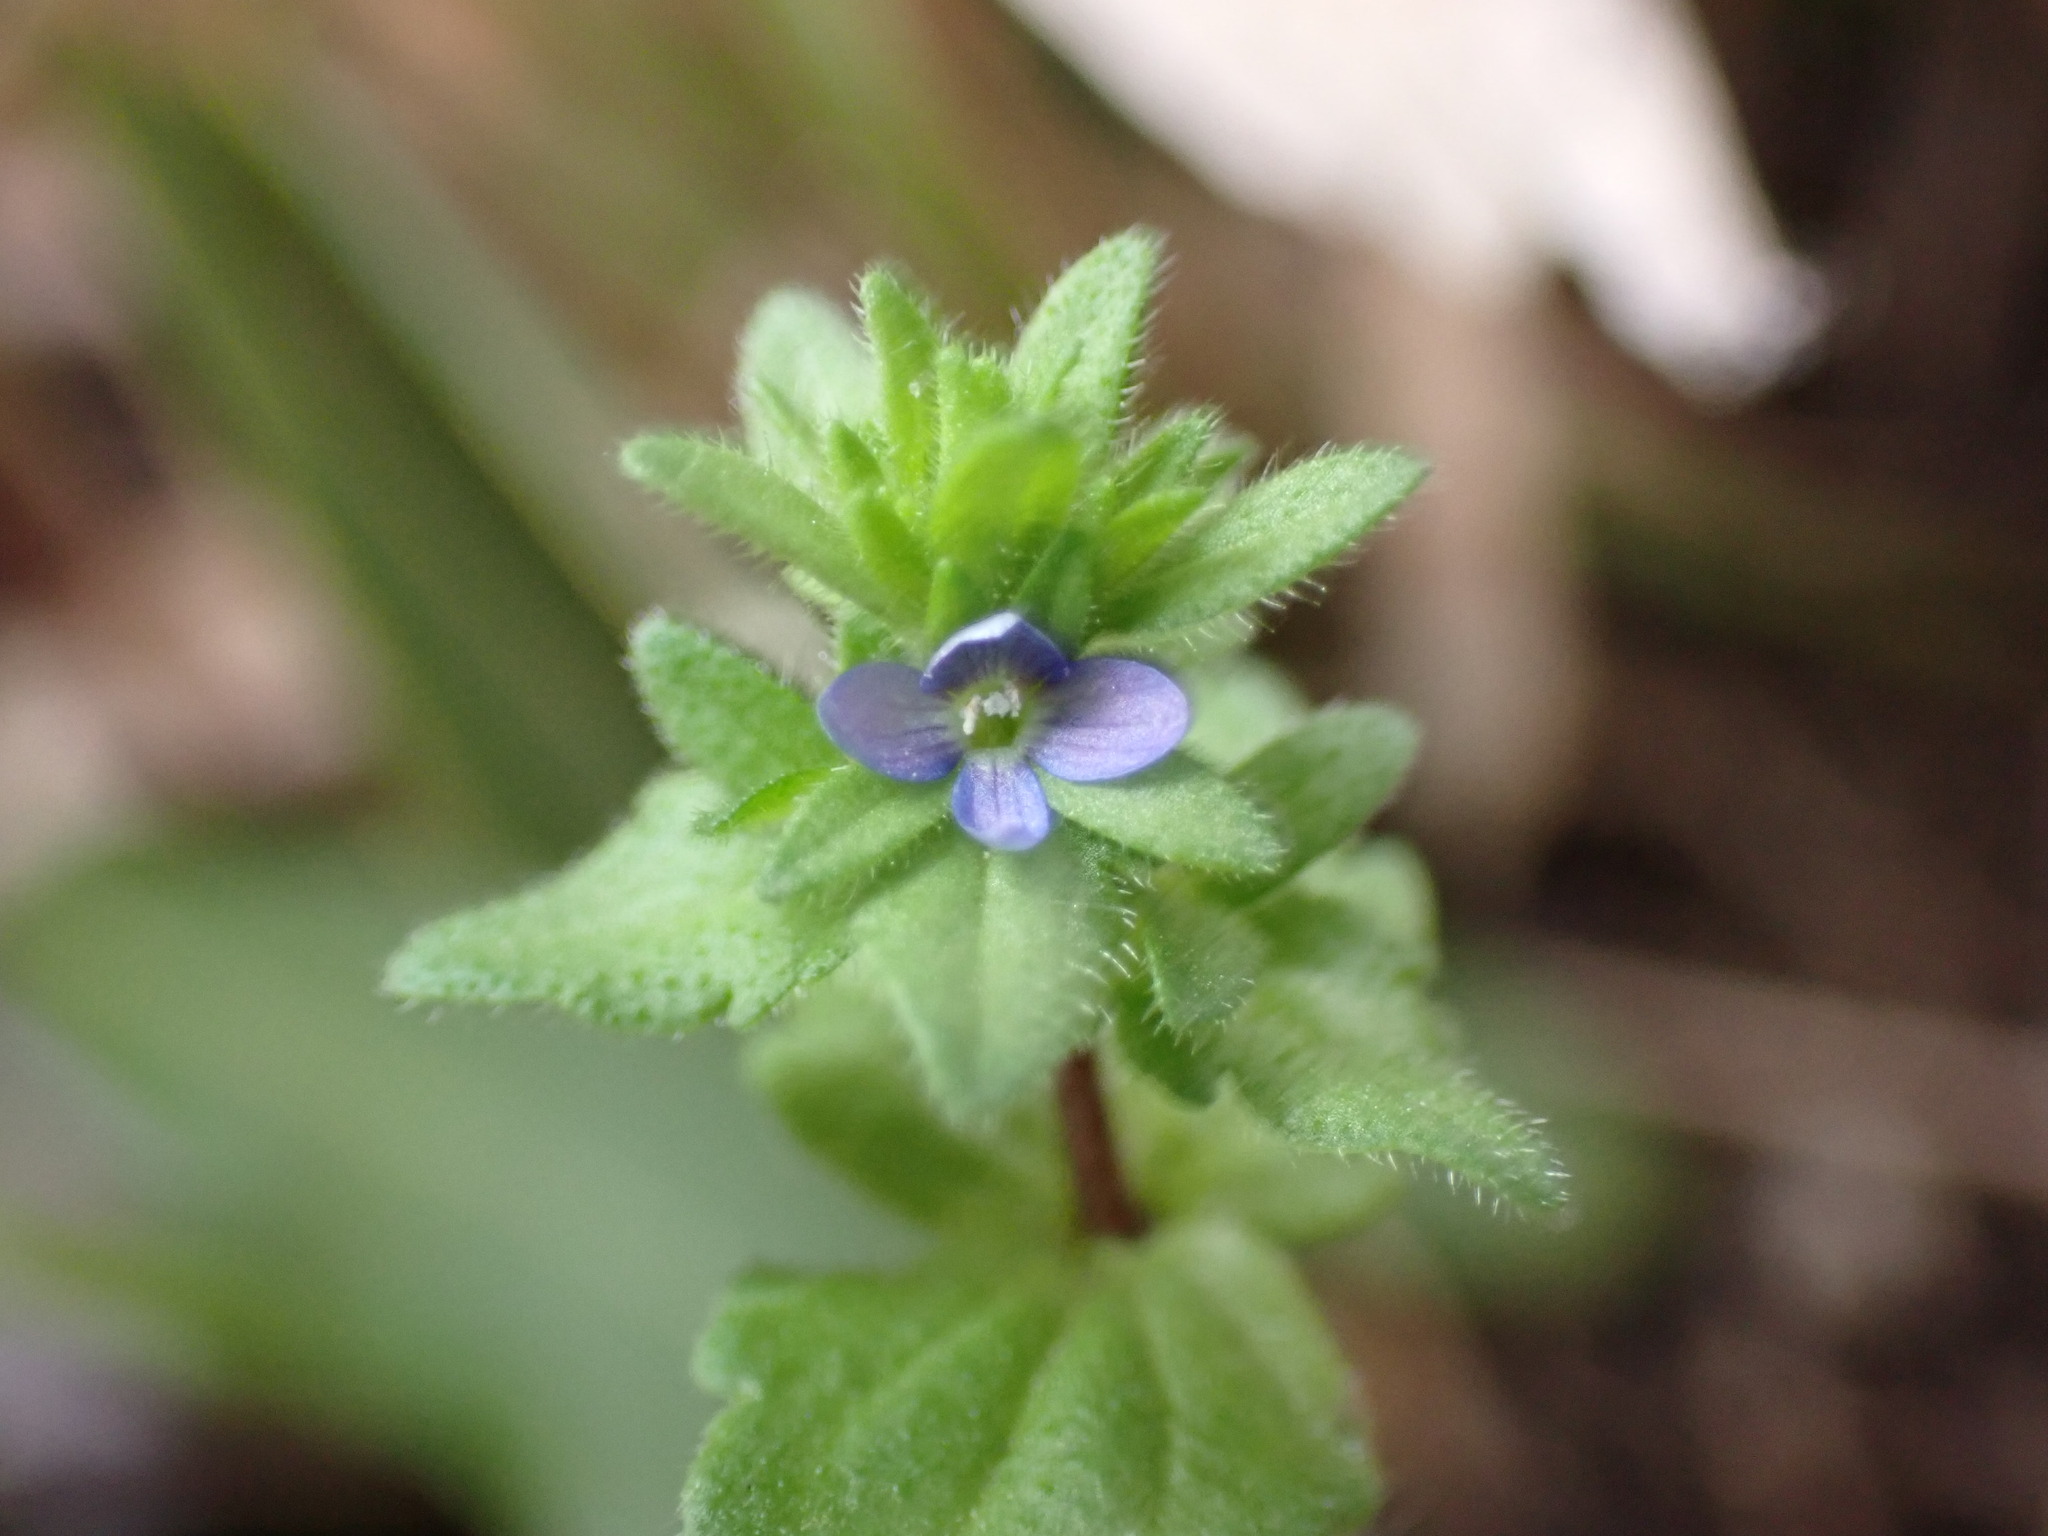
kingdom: Plantae
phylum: Tracheophyta
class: Magnoliopsida
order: Lamiales
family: Plantaginaceae
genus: Veronica
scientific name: Veronica arvensis
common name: Corn speedwell
